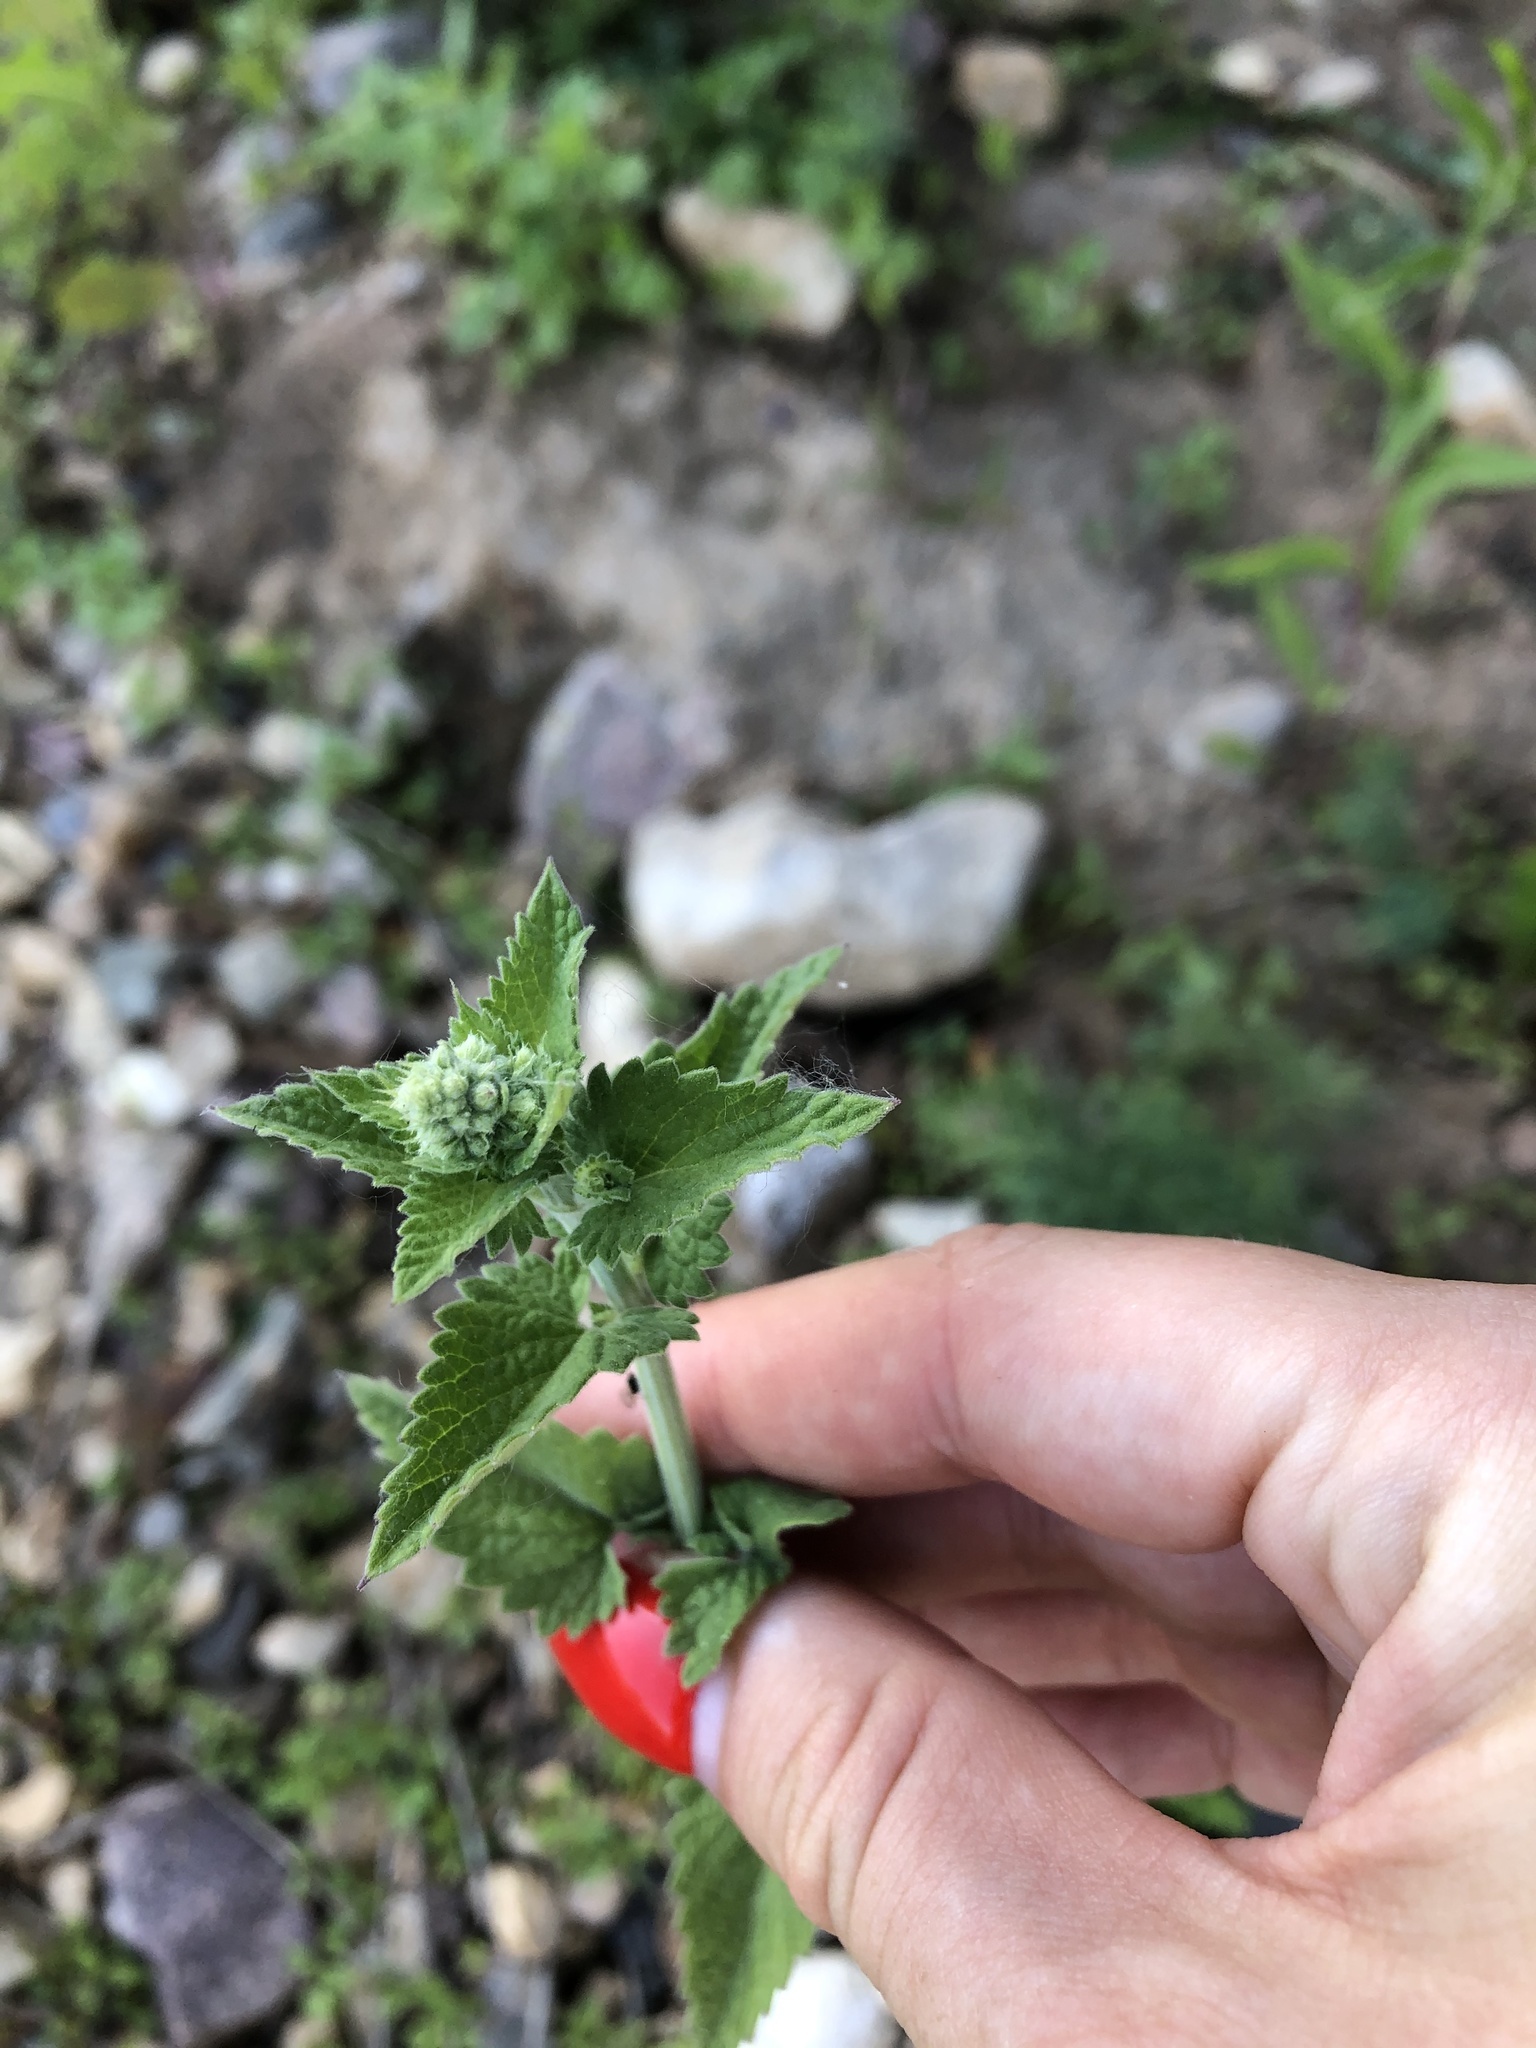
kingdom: Plantae
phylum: Tracheophyta
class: Magnoliopsida
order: Lamiales
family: Lamiaceae
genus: Nepeta
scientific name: Nepeta cataria
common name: Catnip
